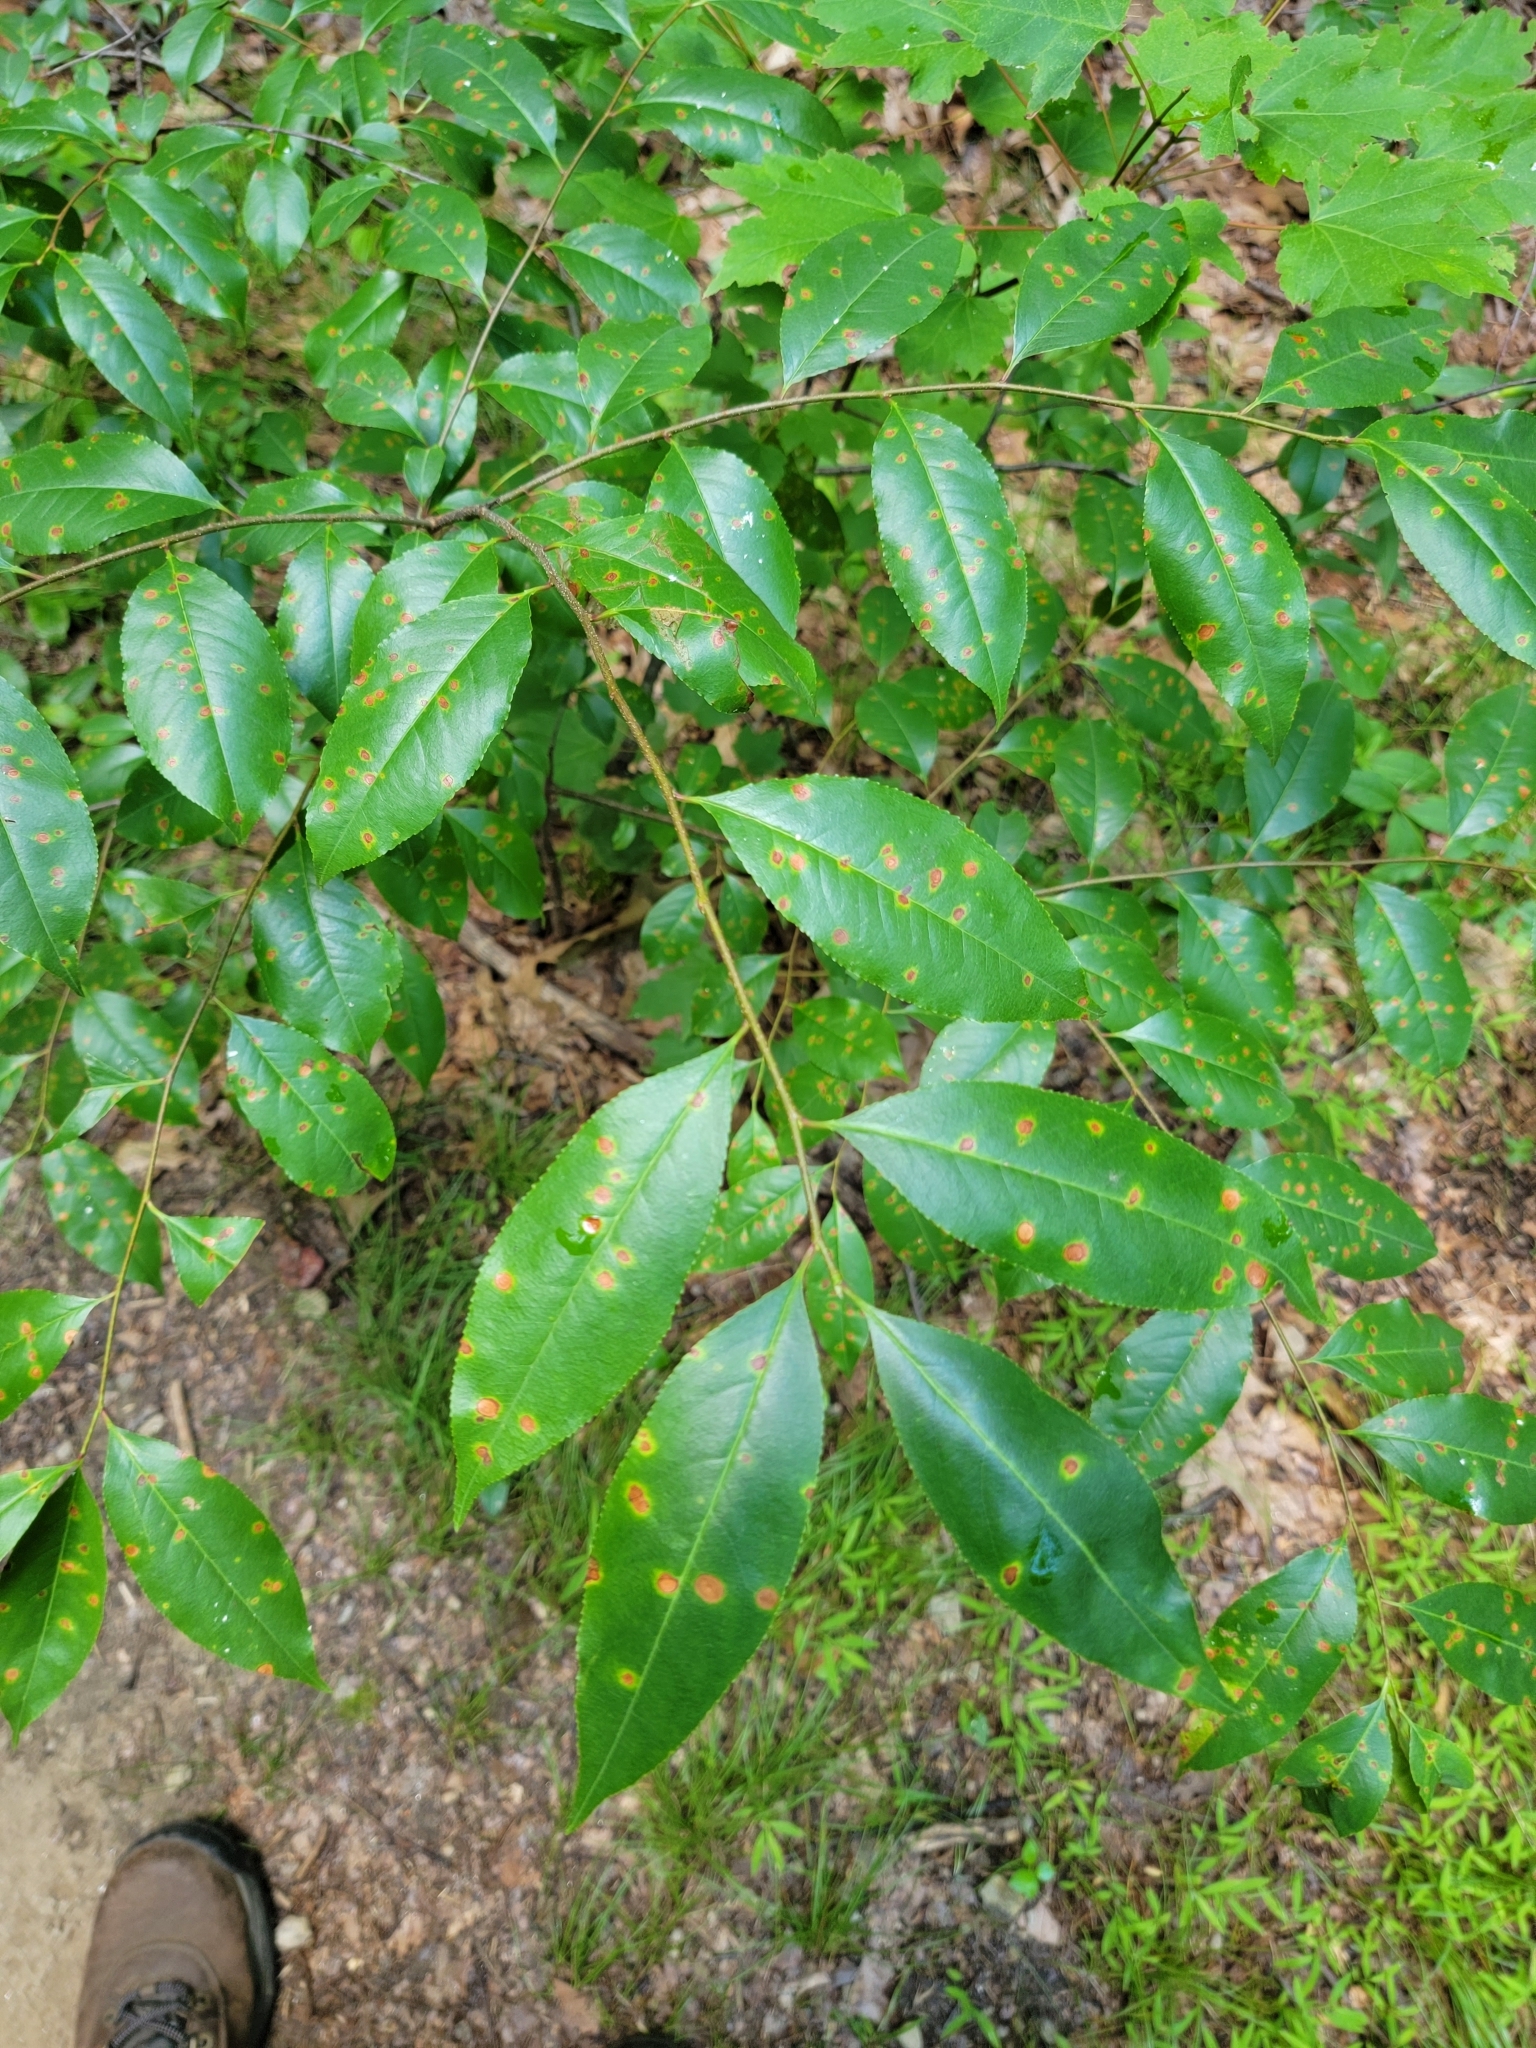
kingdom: Fungi
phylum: Ascomycota
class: Leotiomycetes
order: Helotiales
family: Drepanopezizaceae
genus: Blumeriella
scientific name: Blumeriella jaapii
